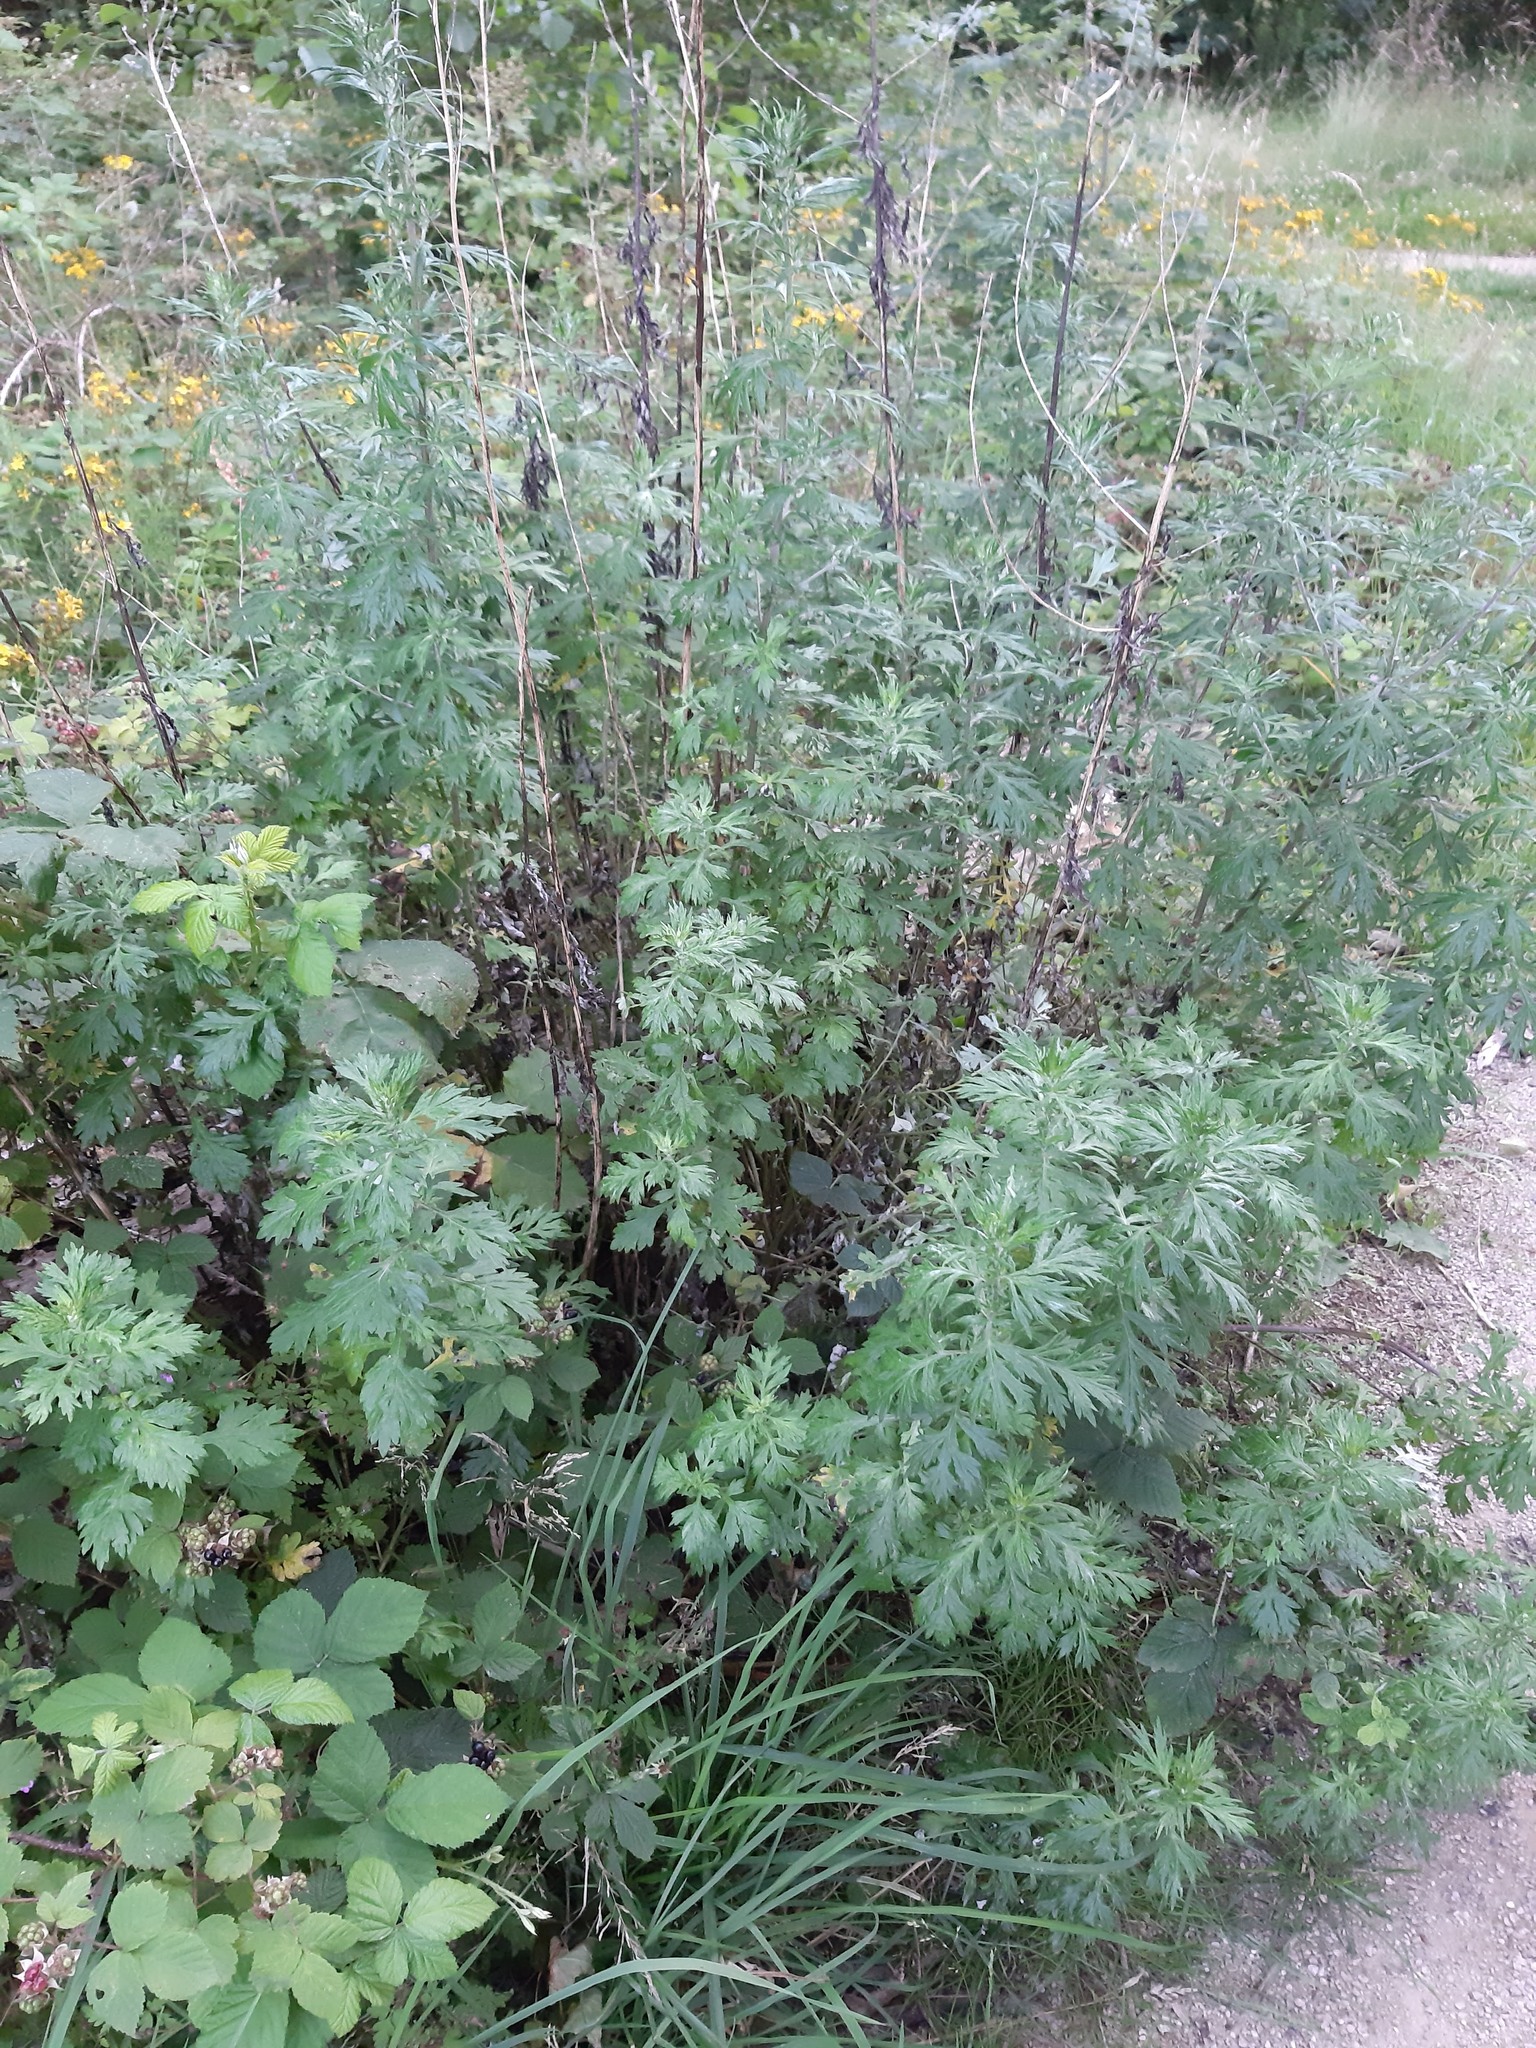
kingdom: Plantae
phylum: Tracheophyta
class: Magnoliopsida
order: Asterales
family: Asteraceae
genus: Artemisia
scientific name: Artemisia vulgaris
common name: Mugwort
